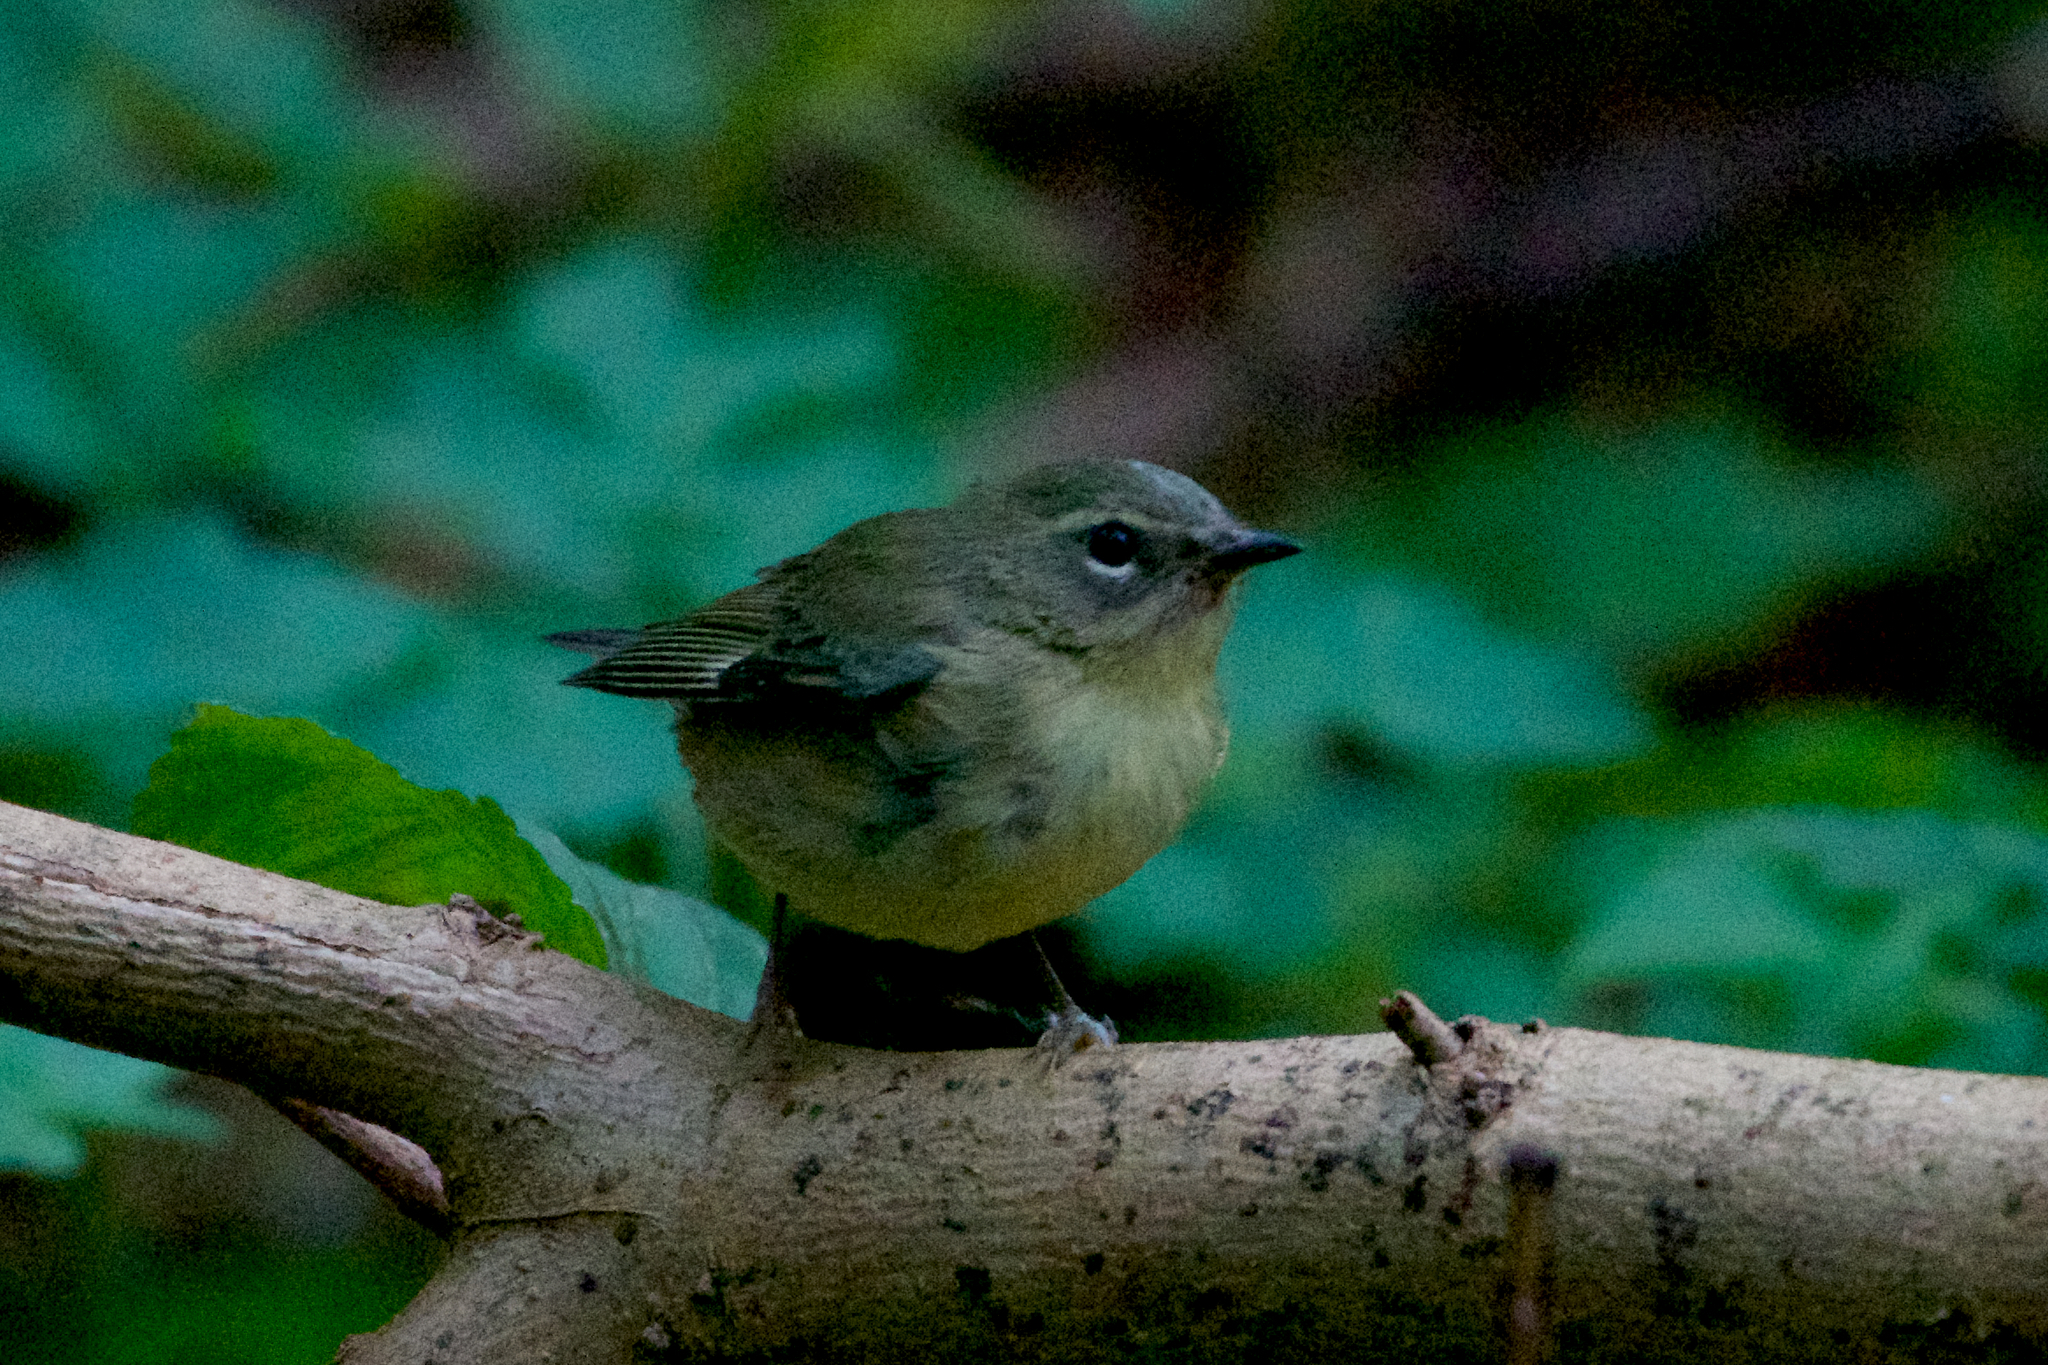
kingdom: Animalia
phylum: Chordata
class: Aves
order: Passeriformes
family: Parulidae
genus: Setophaga
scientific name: Setophaga caerulescens
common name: Black-throated blue warbler
